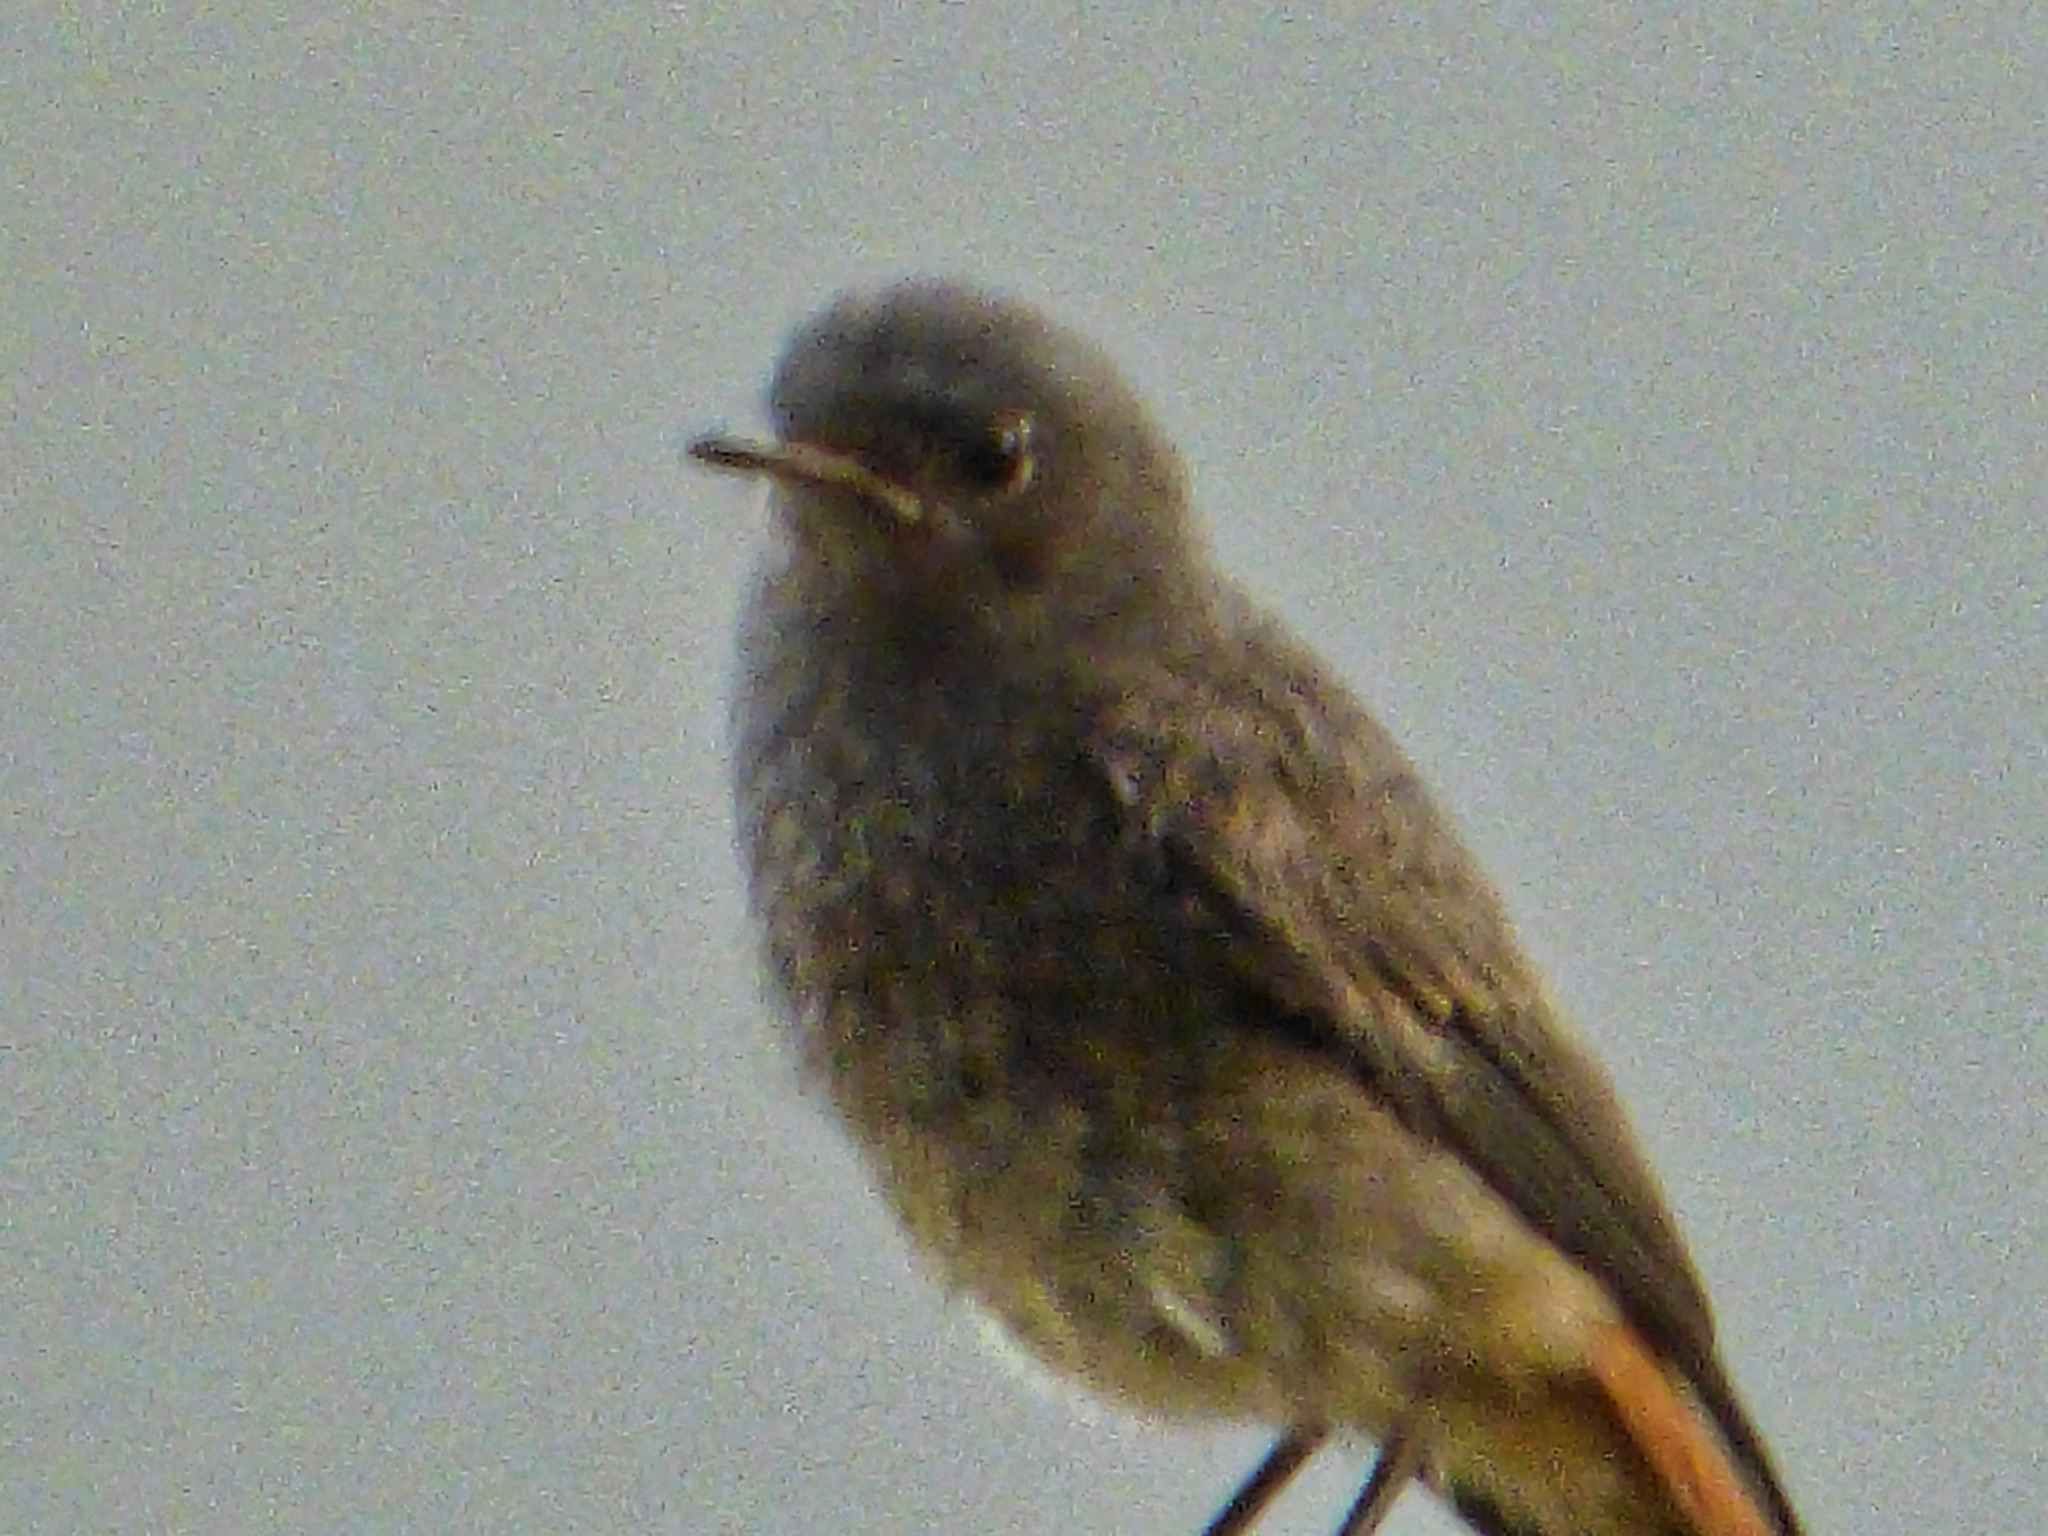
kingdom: Animalia
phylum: Chordata
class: Aves
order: Passeriformes
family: Muscicapidae
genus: Phoenicurus
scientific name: Phoenicurus ochruros
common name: Black redstart
